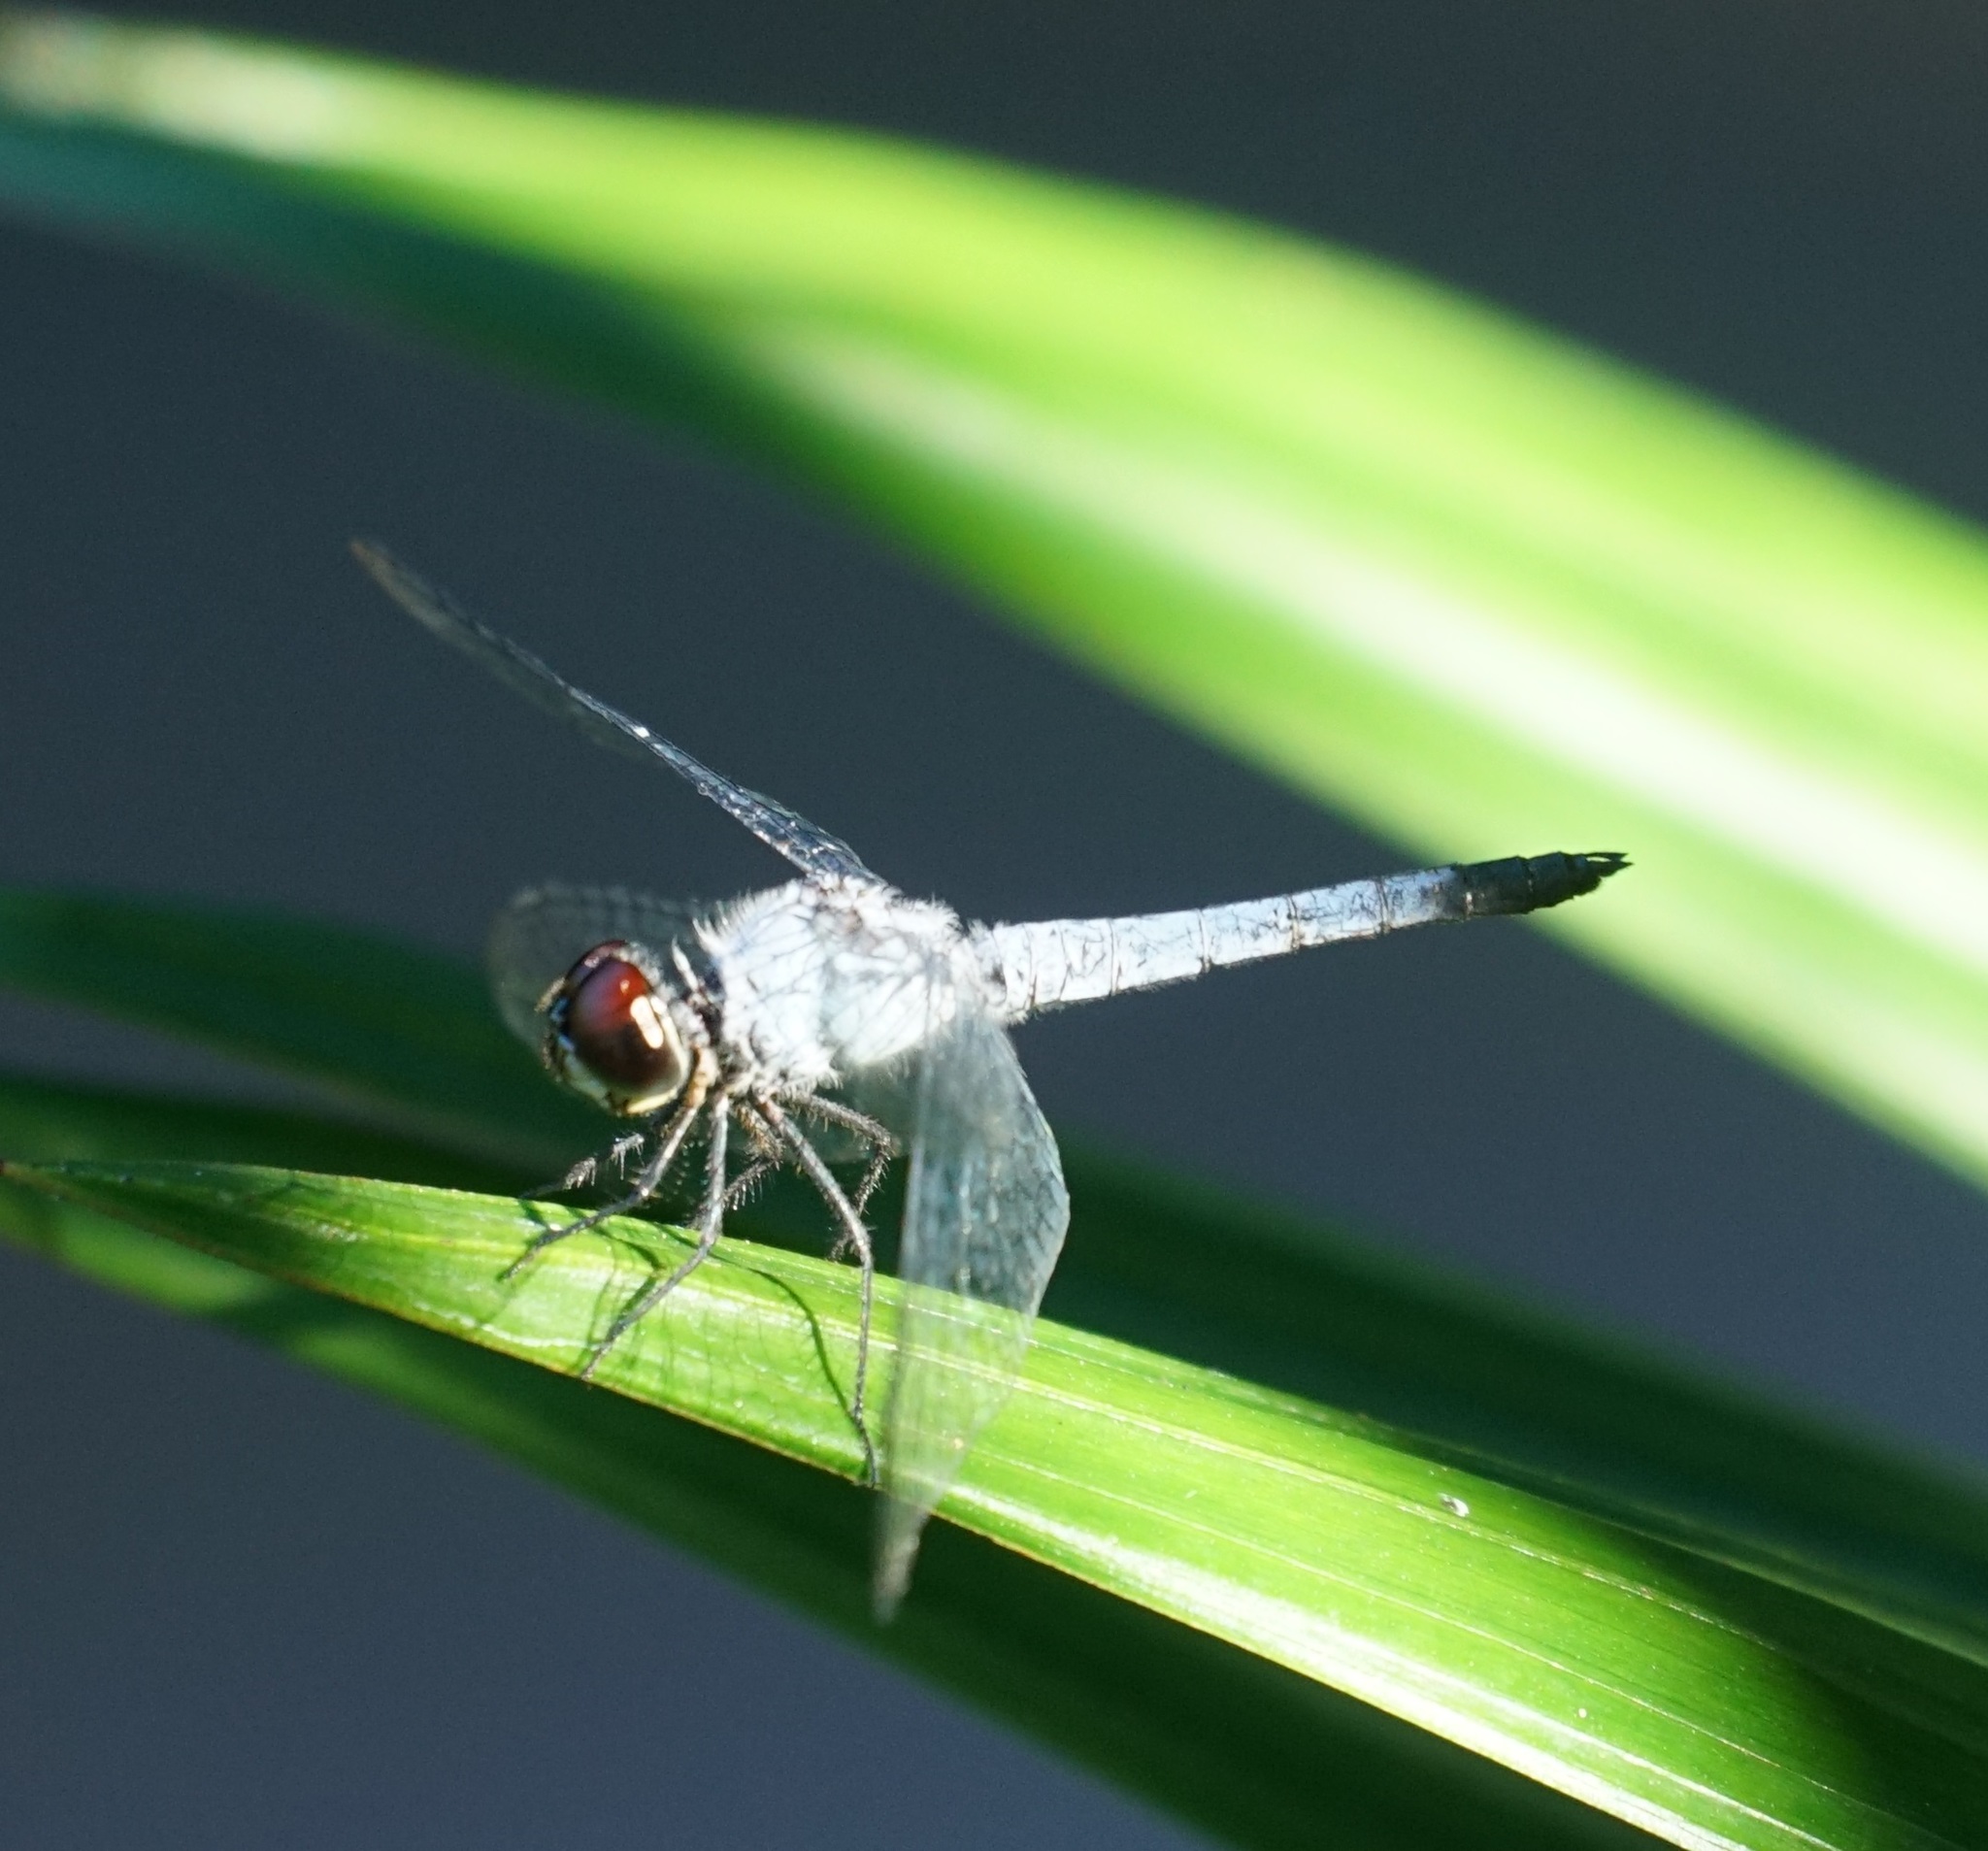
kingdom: Animalia
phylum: Arthropoda
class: Insecta
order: Odonata
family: Libellulidae
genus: Brachydiplax
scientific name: Brachydiplax denticauda
